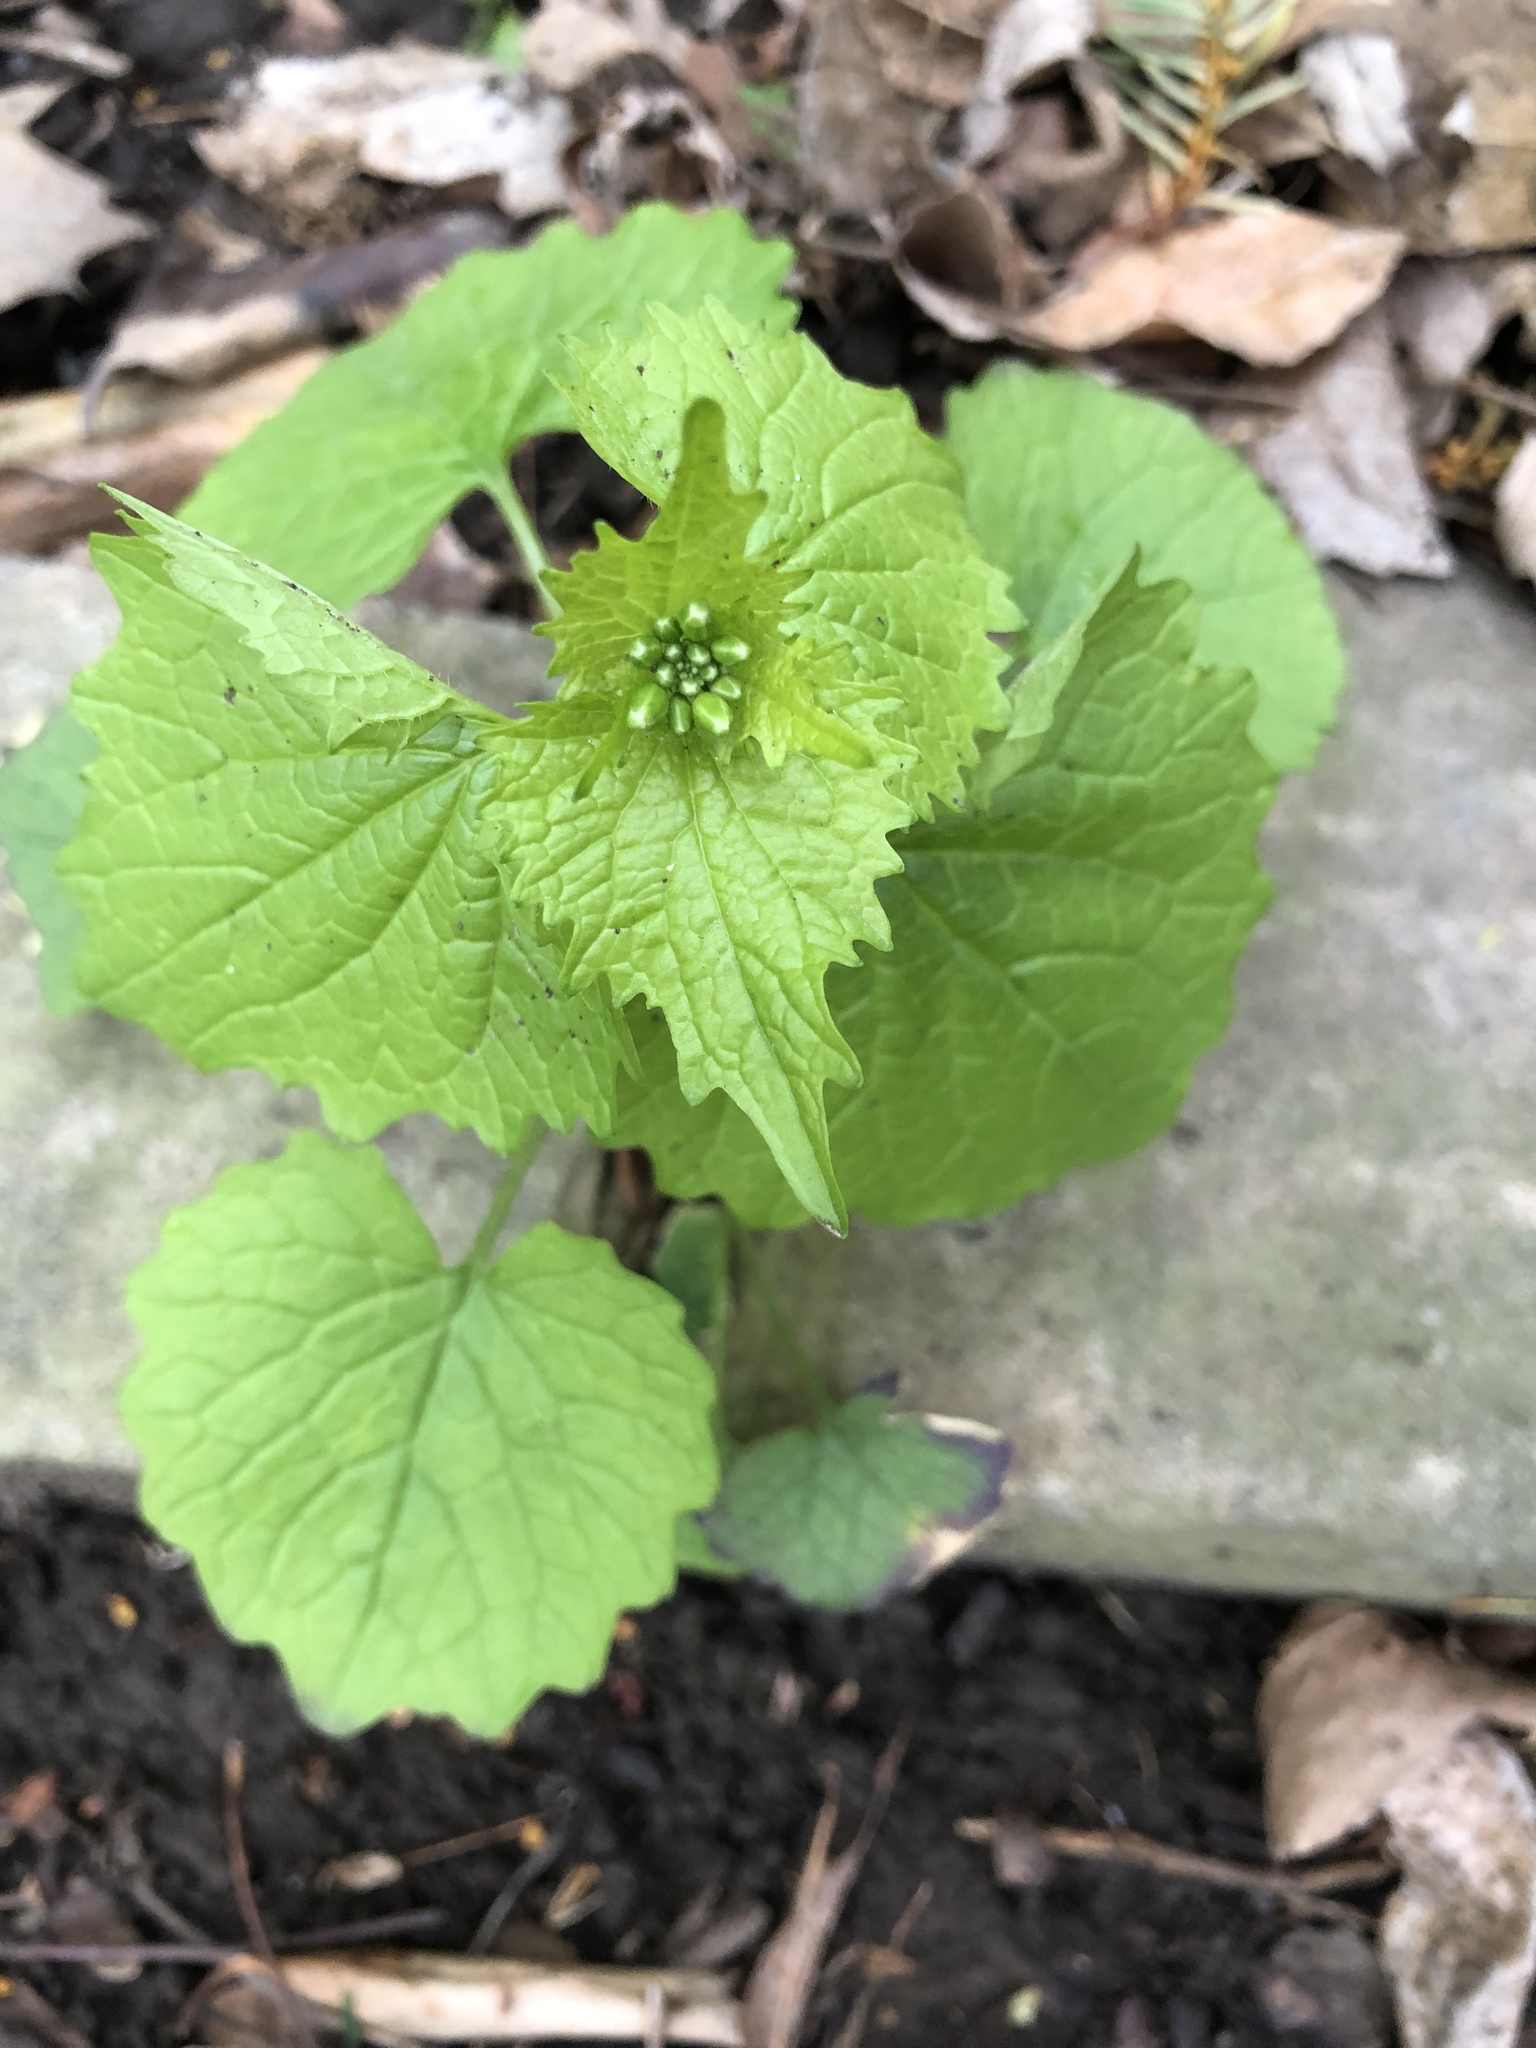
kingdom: Plantae
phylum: Tracheophyta
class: Magnoliopsida
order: Brassicales
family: Brassicaceae
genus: Alliaria
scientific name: Alliaria petiolata
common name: Garlic mustard
